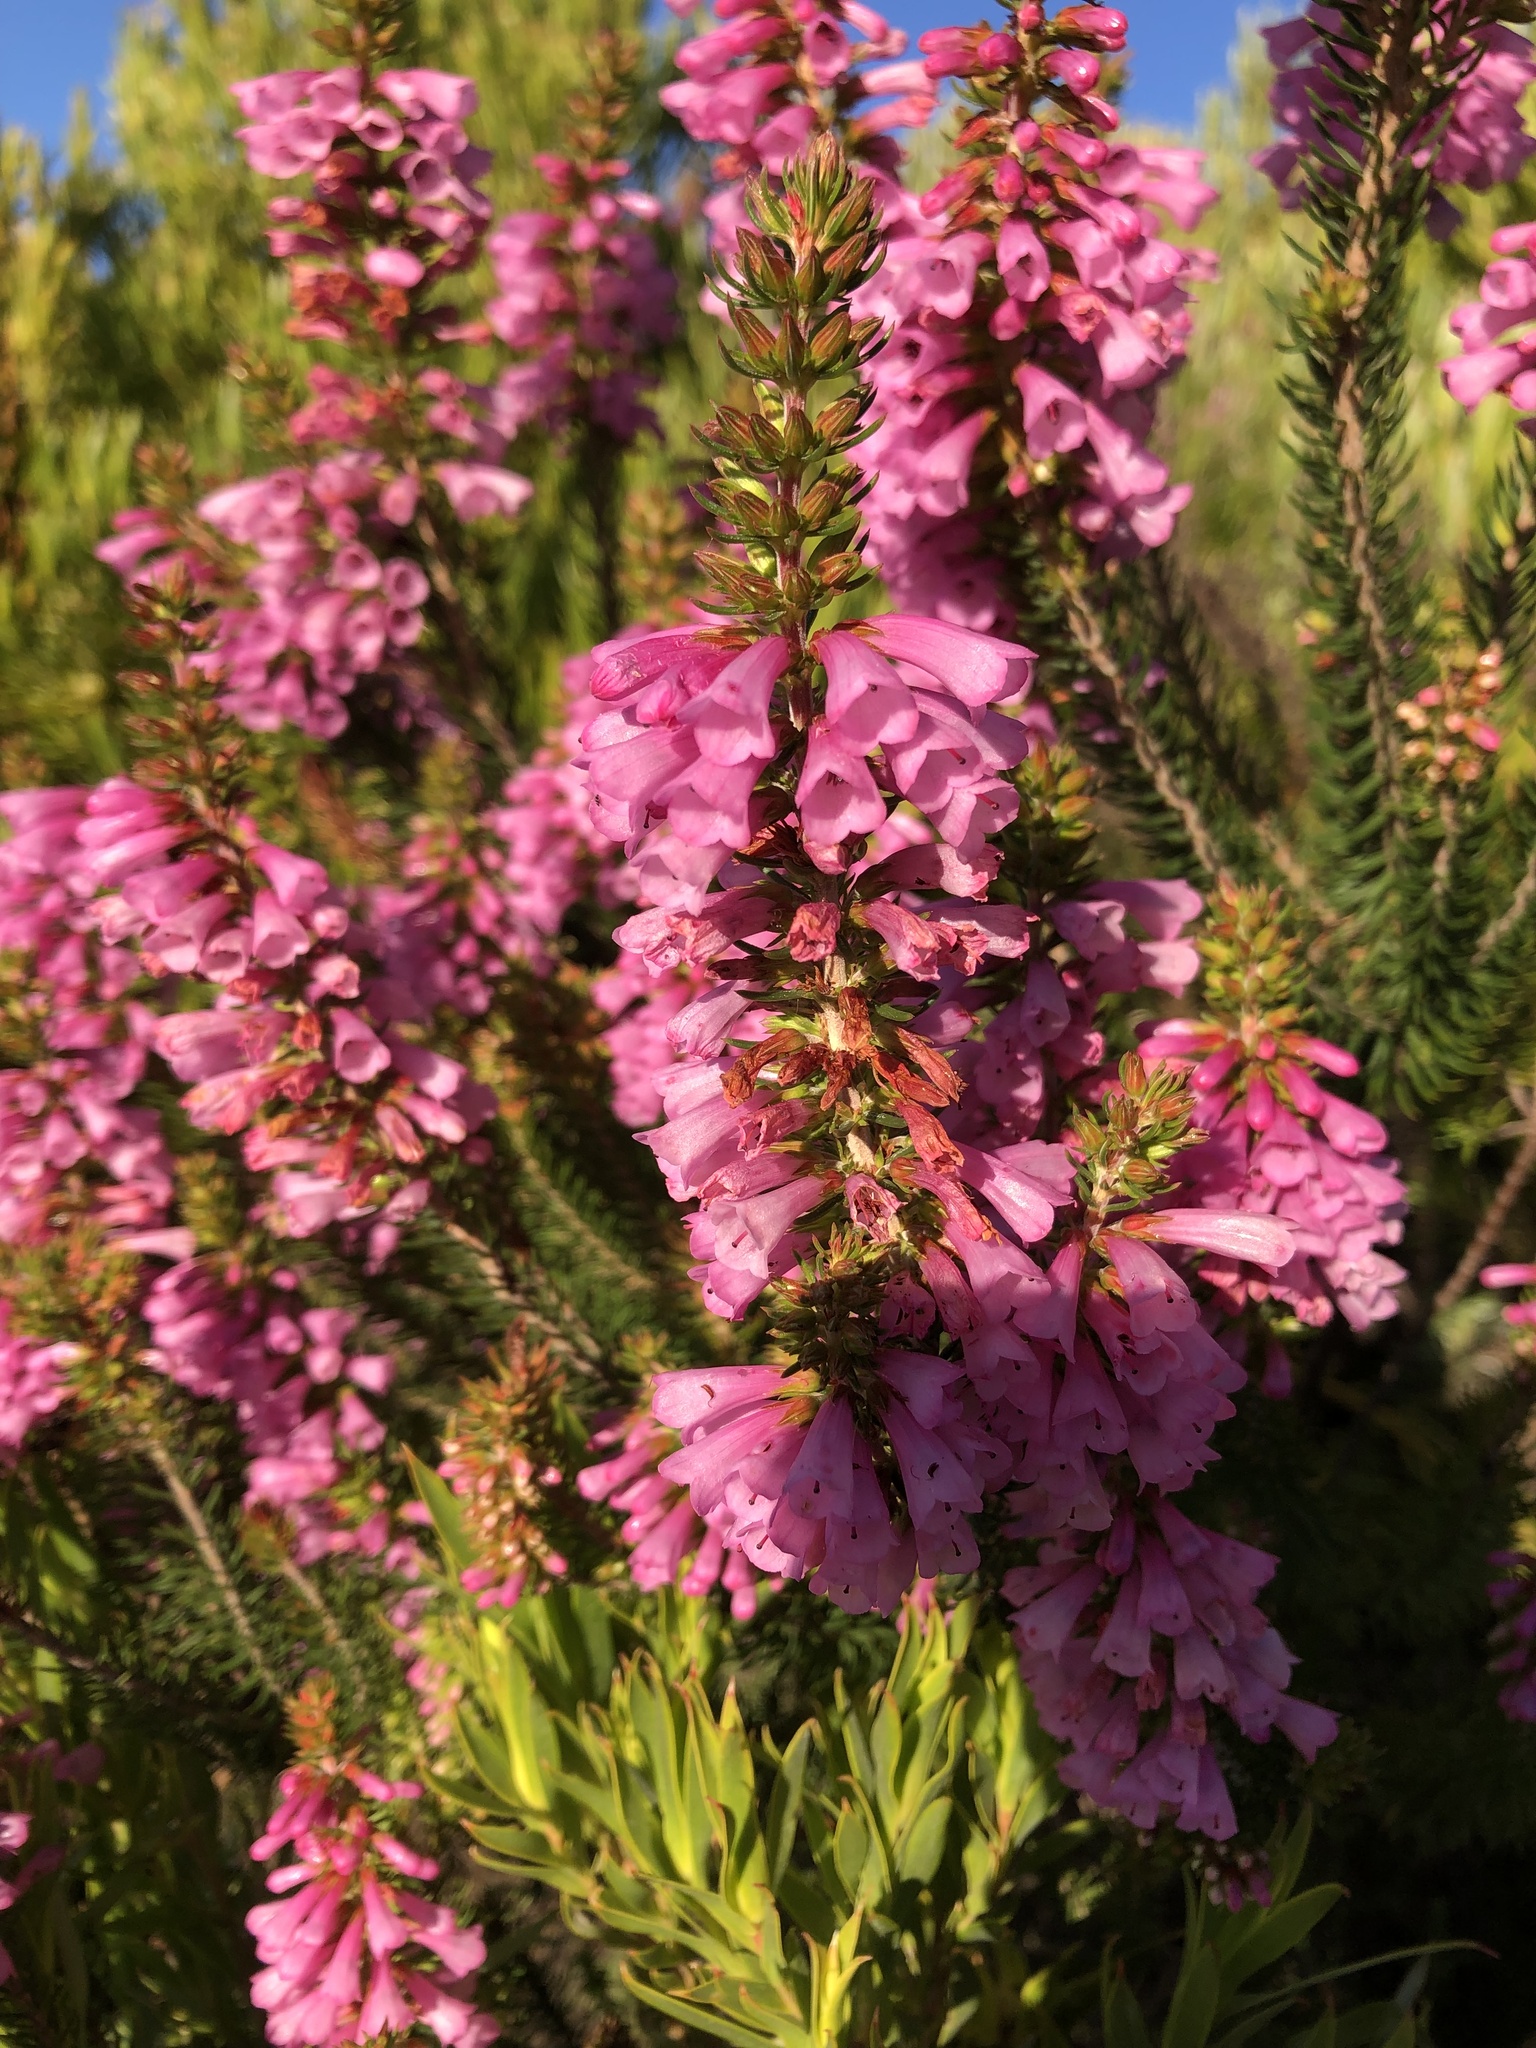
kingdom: Plantae
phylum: Tracheophyta
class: Magnoliopsida
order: Ericales
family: Ericaceae
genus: Erica
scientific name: Erica abietina
